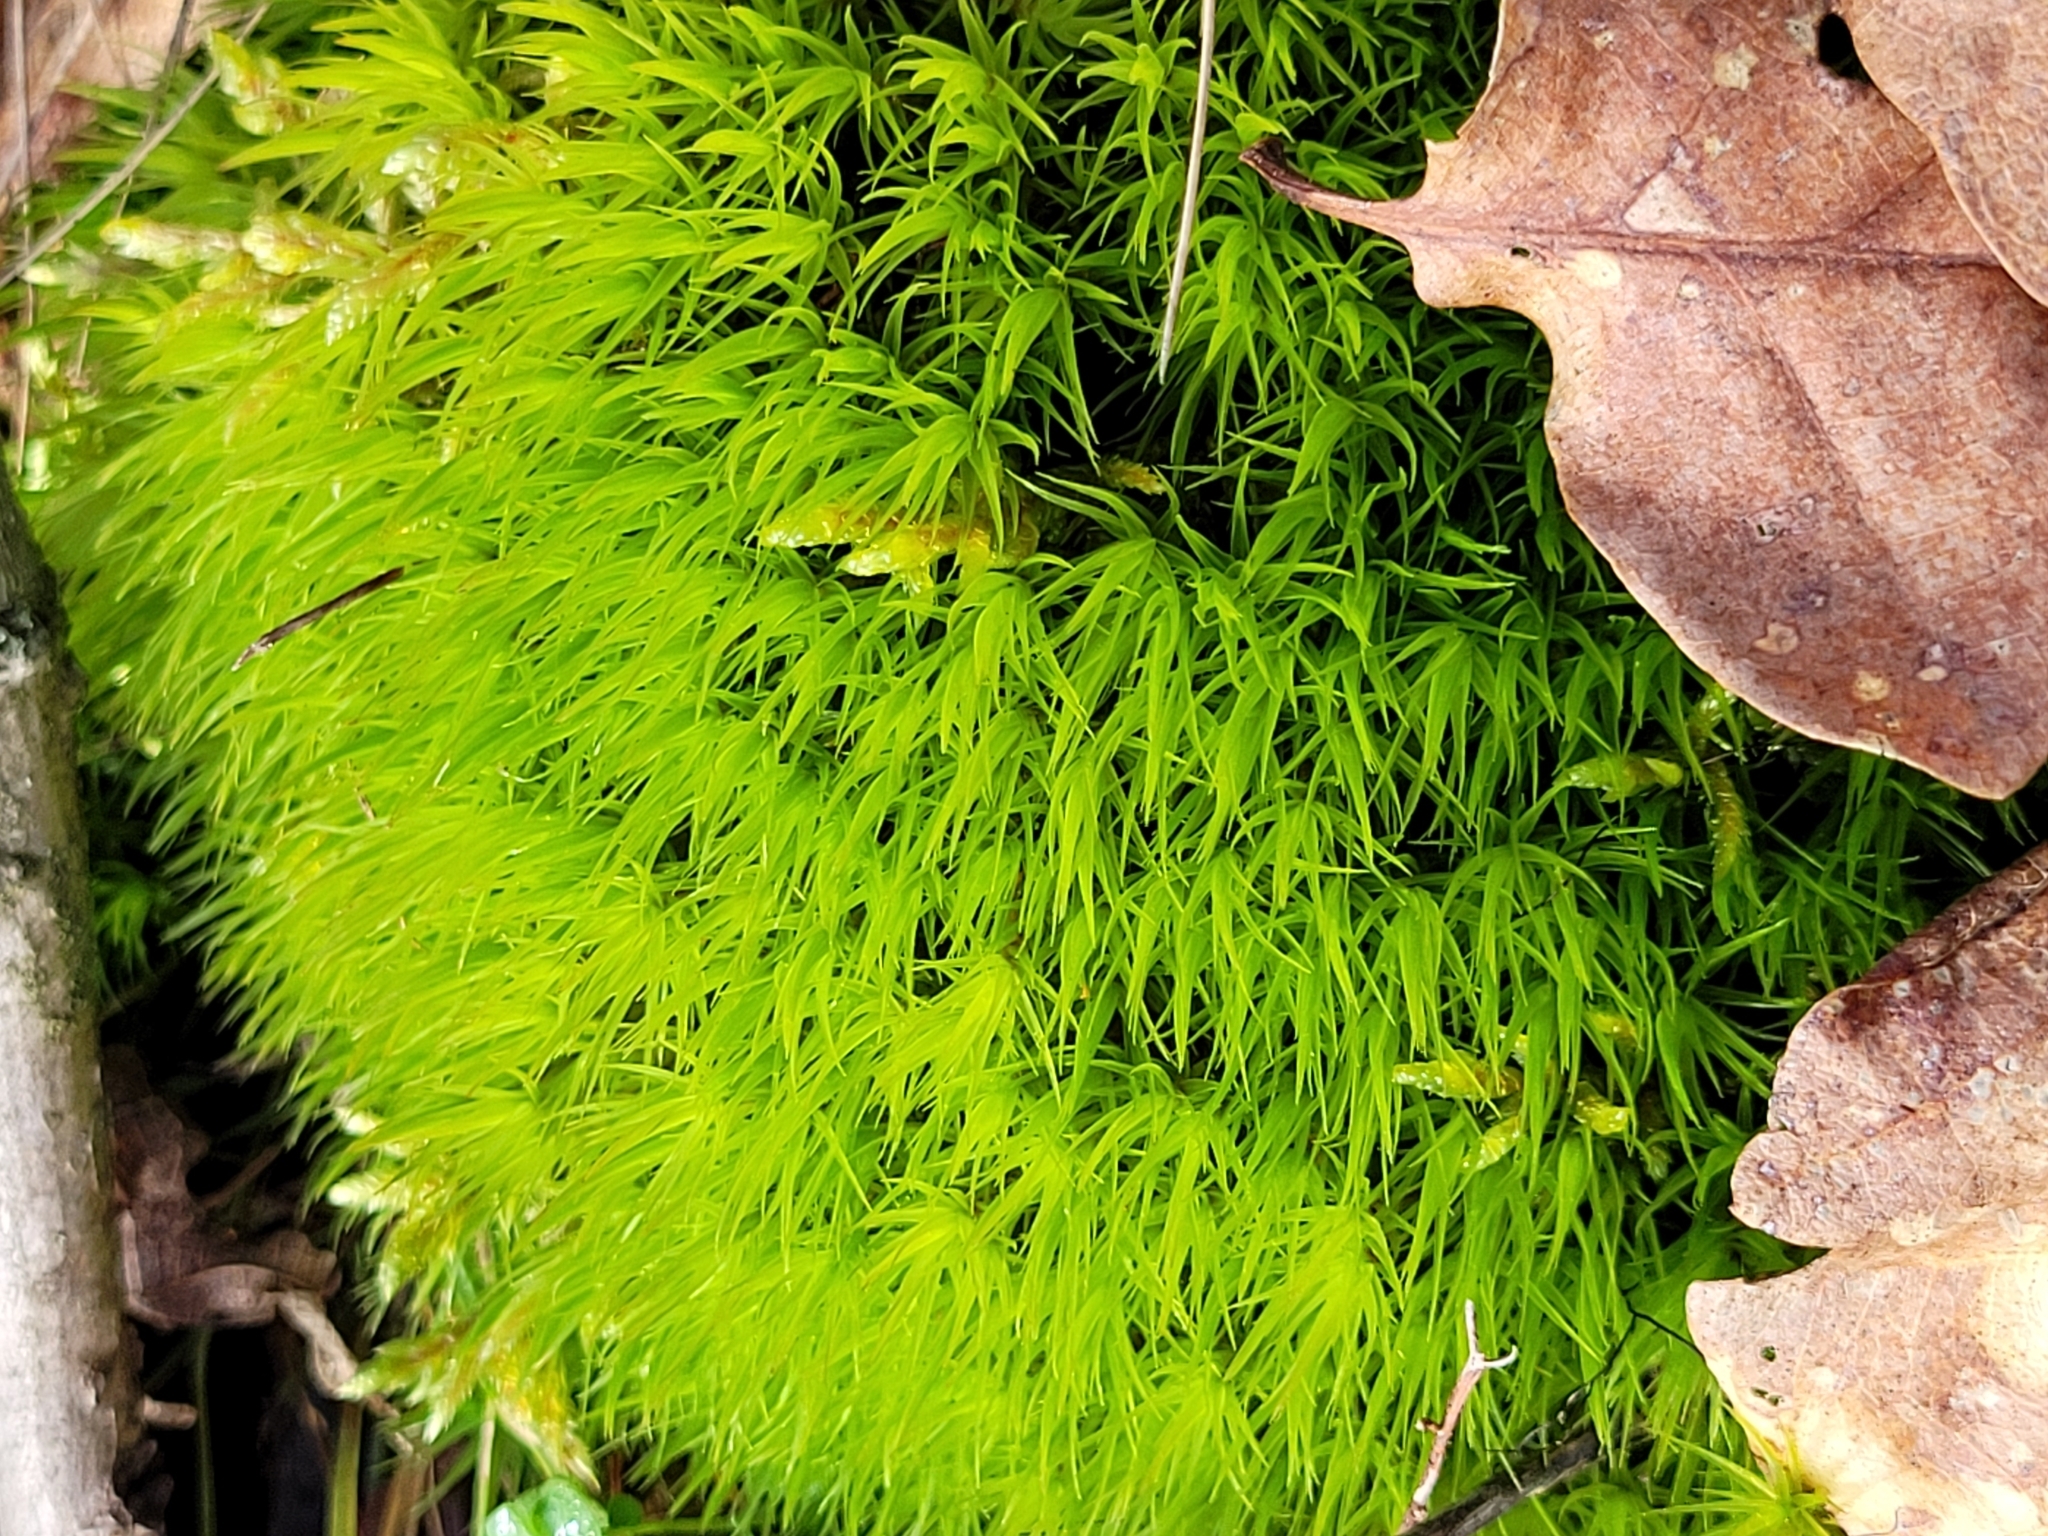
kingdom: Plantae
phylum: Bryophyta
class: Bryopsida
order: Dicranales
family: Dicranaceae
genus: Dicranum
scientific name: Dicranum scoparium
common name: Broom fork-moss
